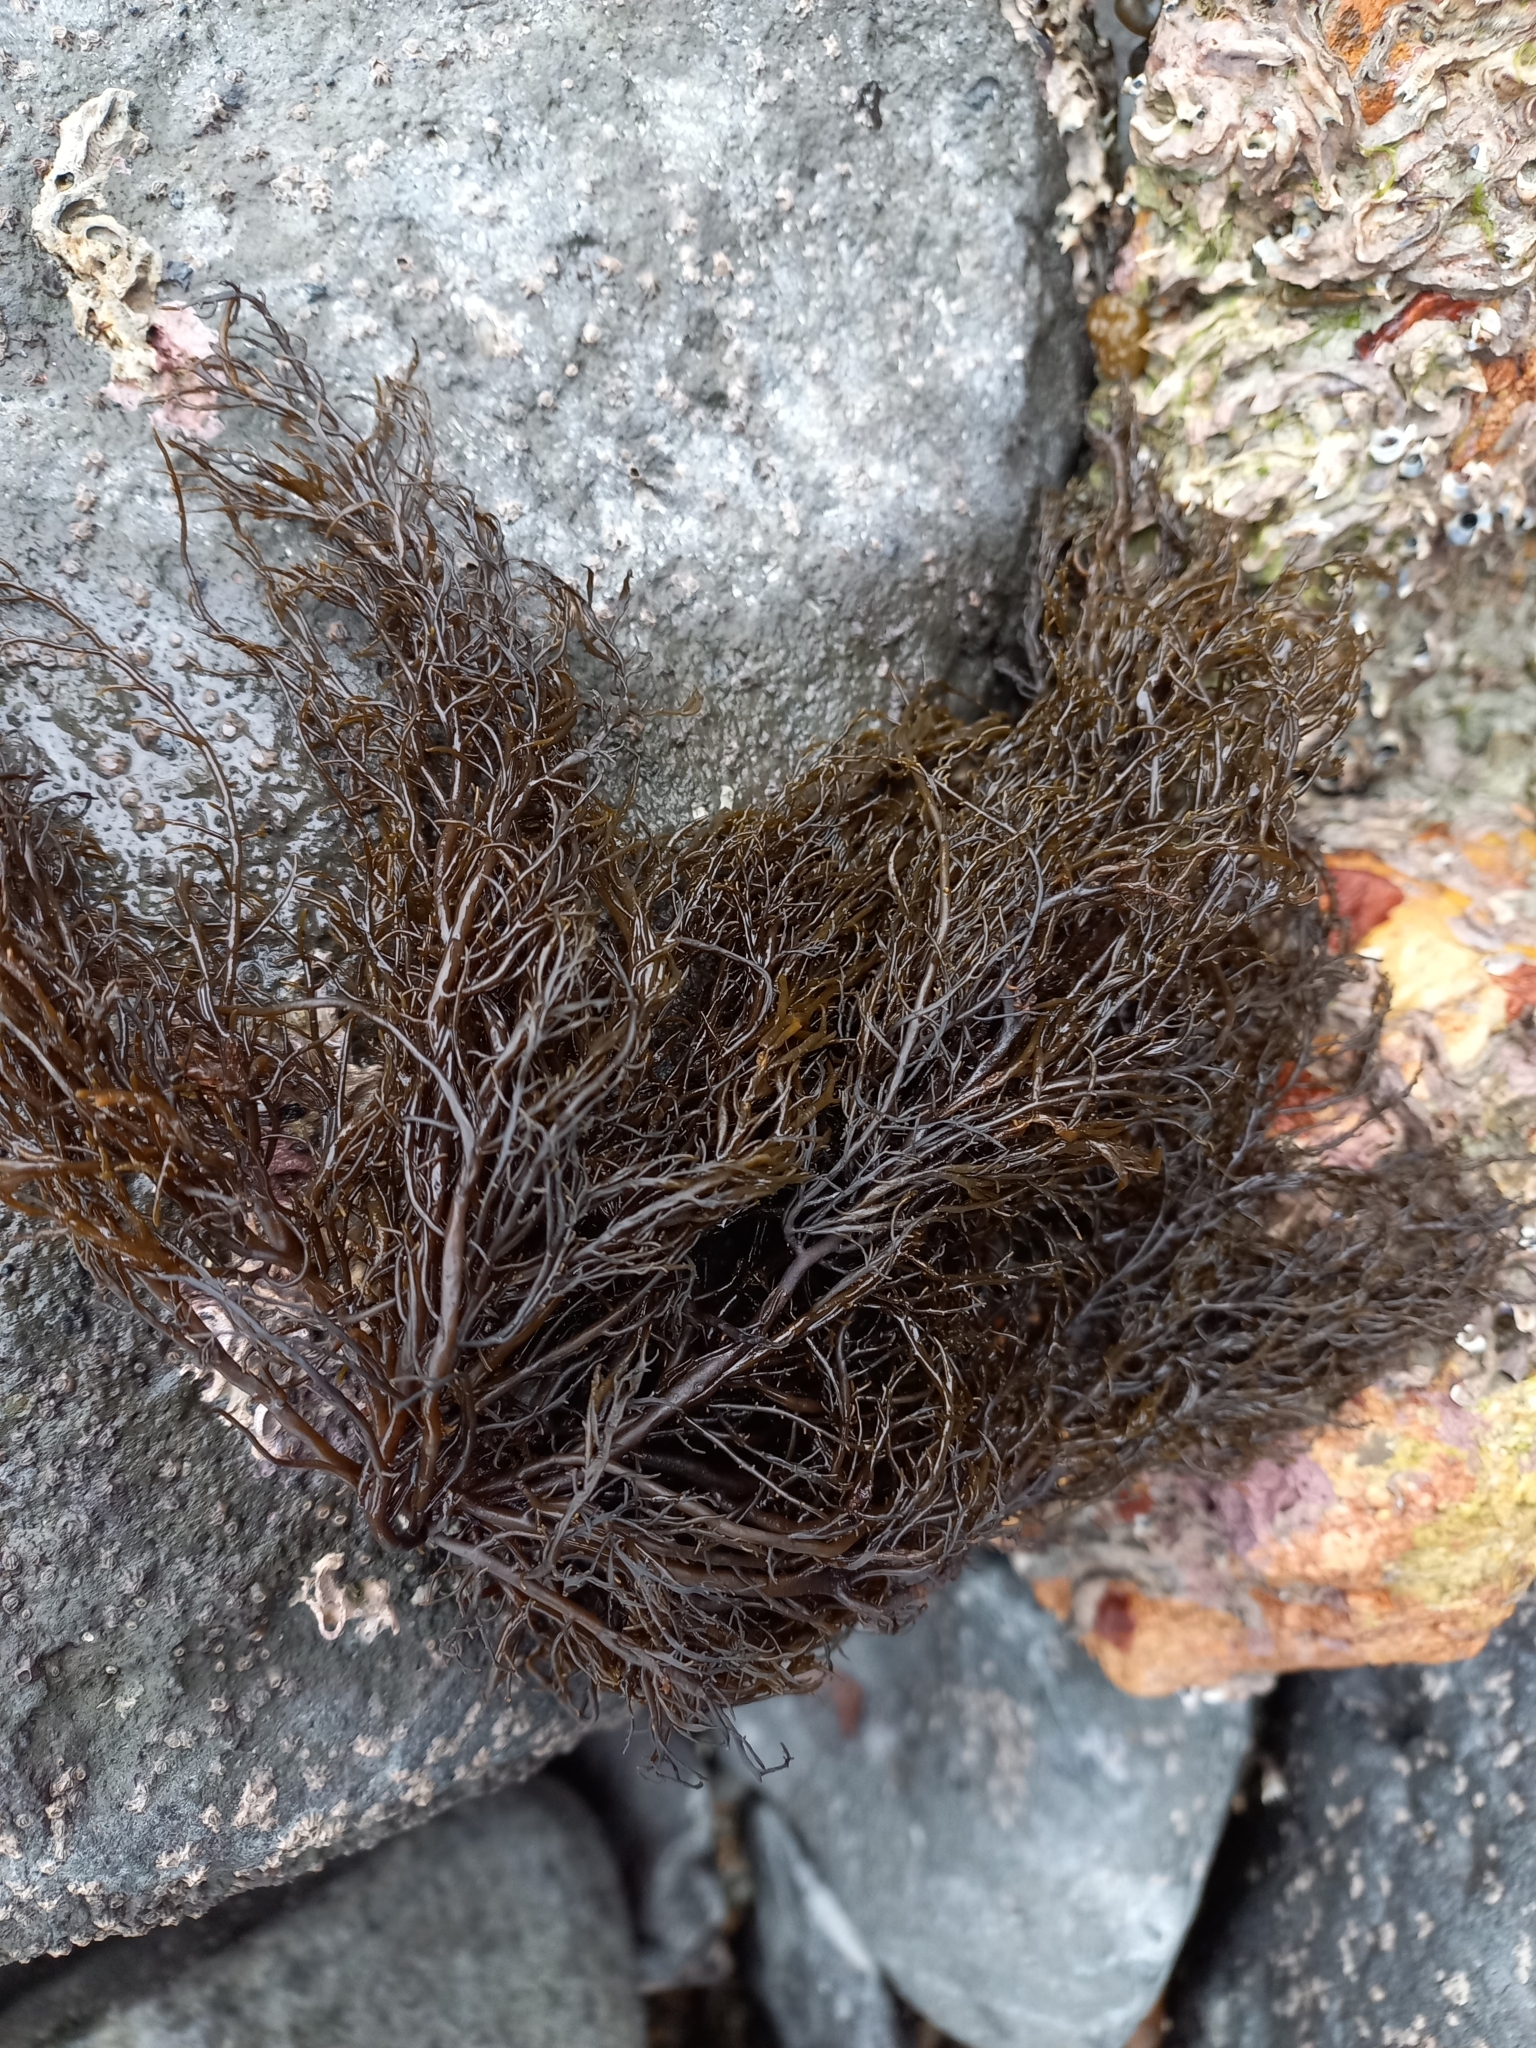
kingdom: Chromista
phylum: Ochrophyta
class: Phaeophyceae
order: Scytothamnales
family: Scytothamnaceae
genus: Scytothamnus
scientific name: Scytothamnus australis
